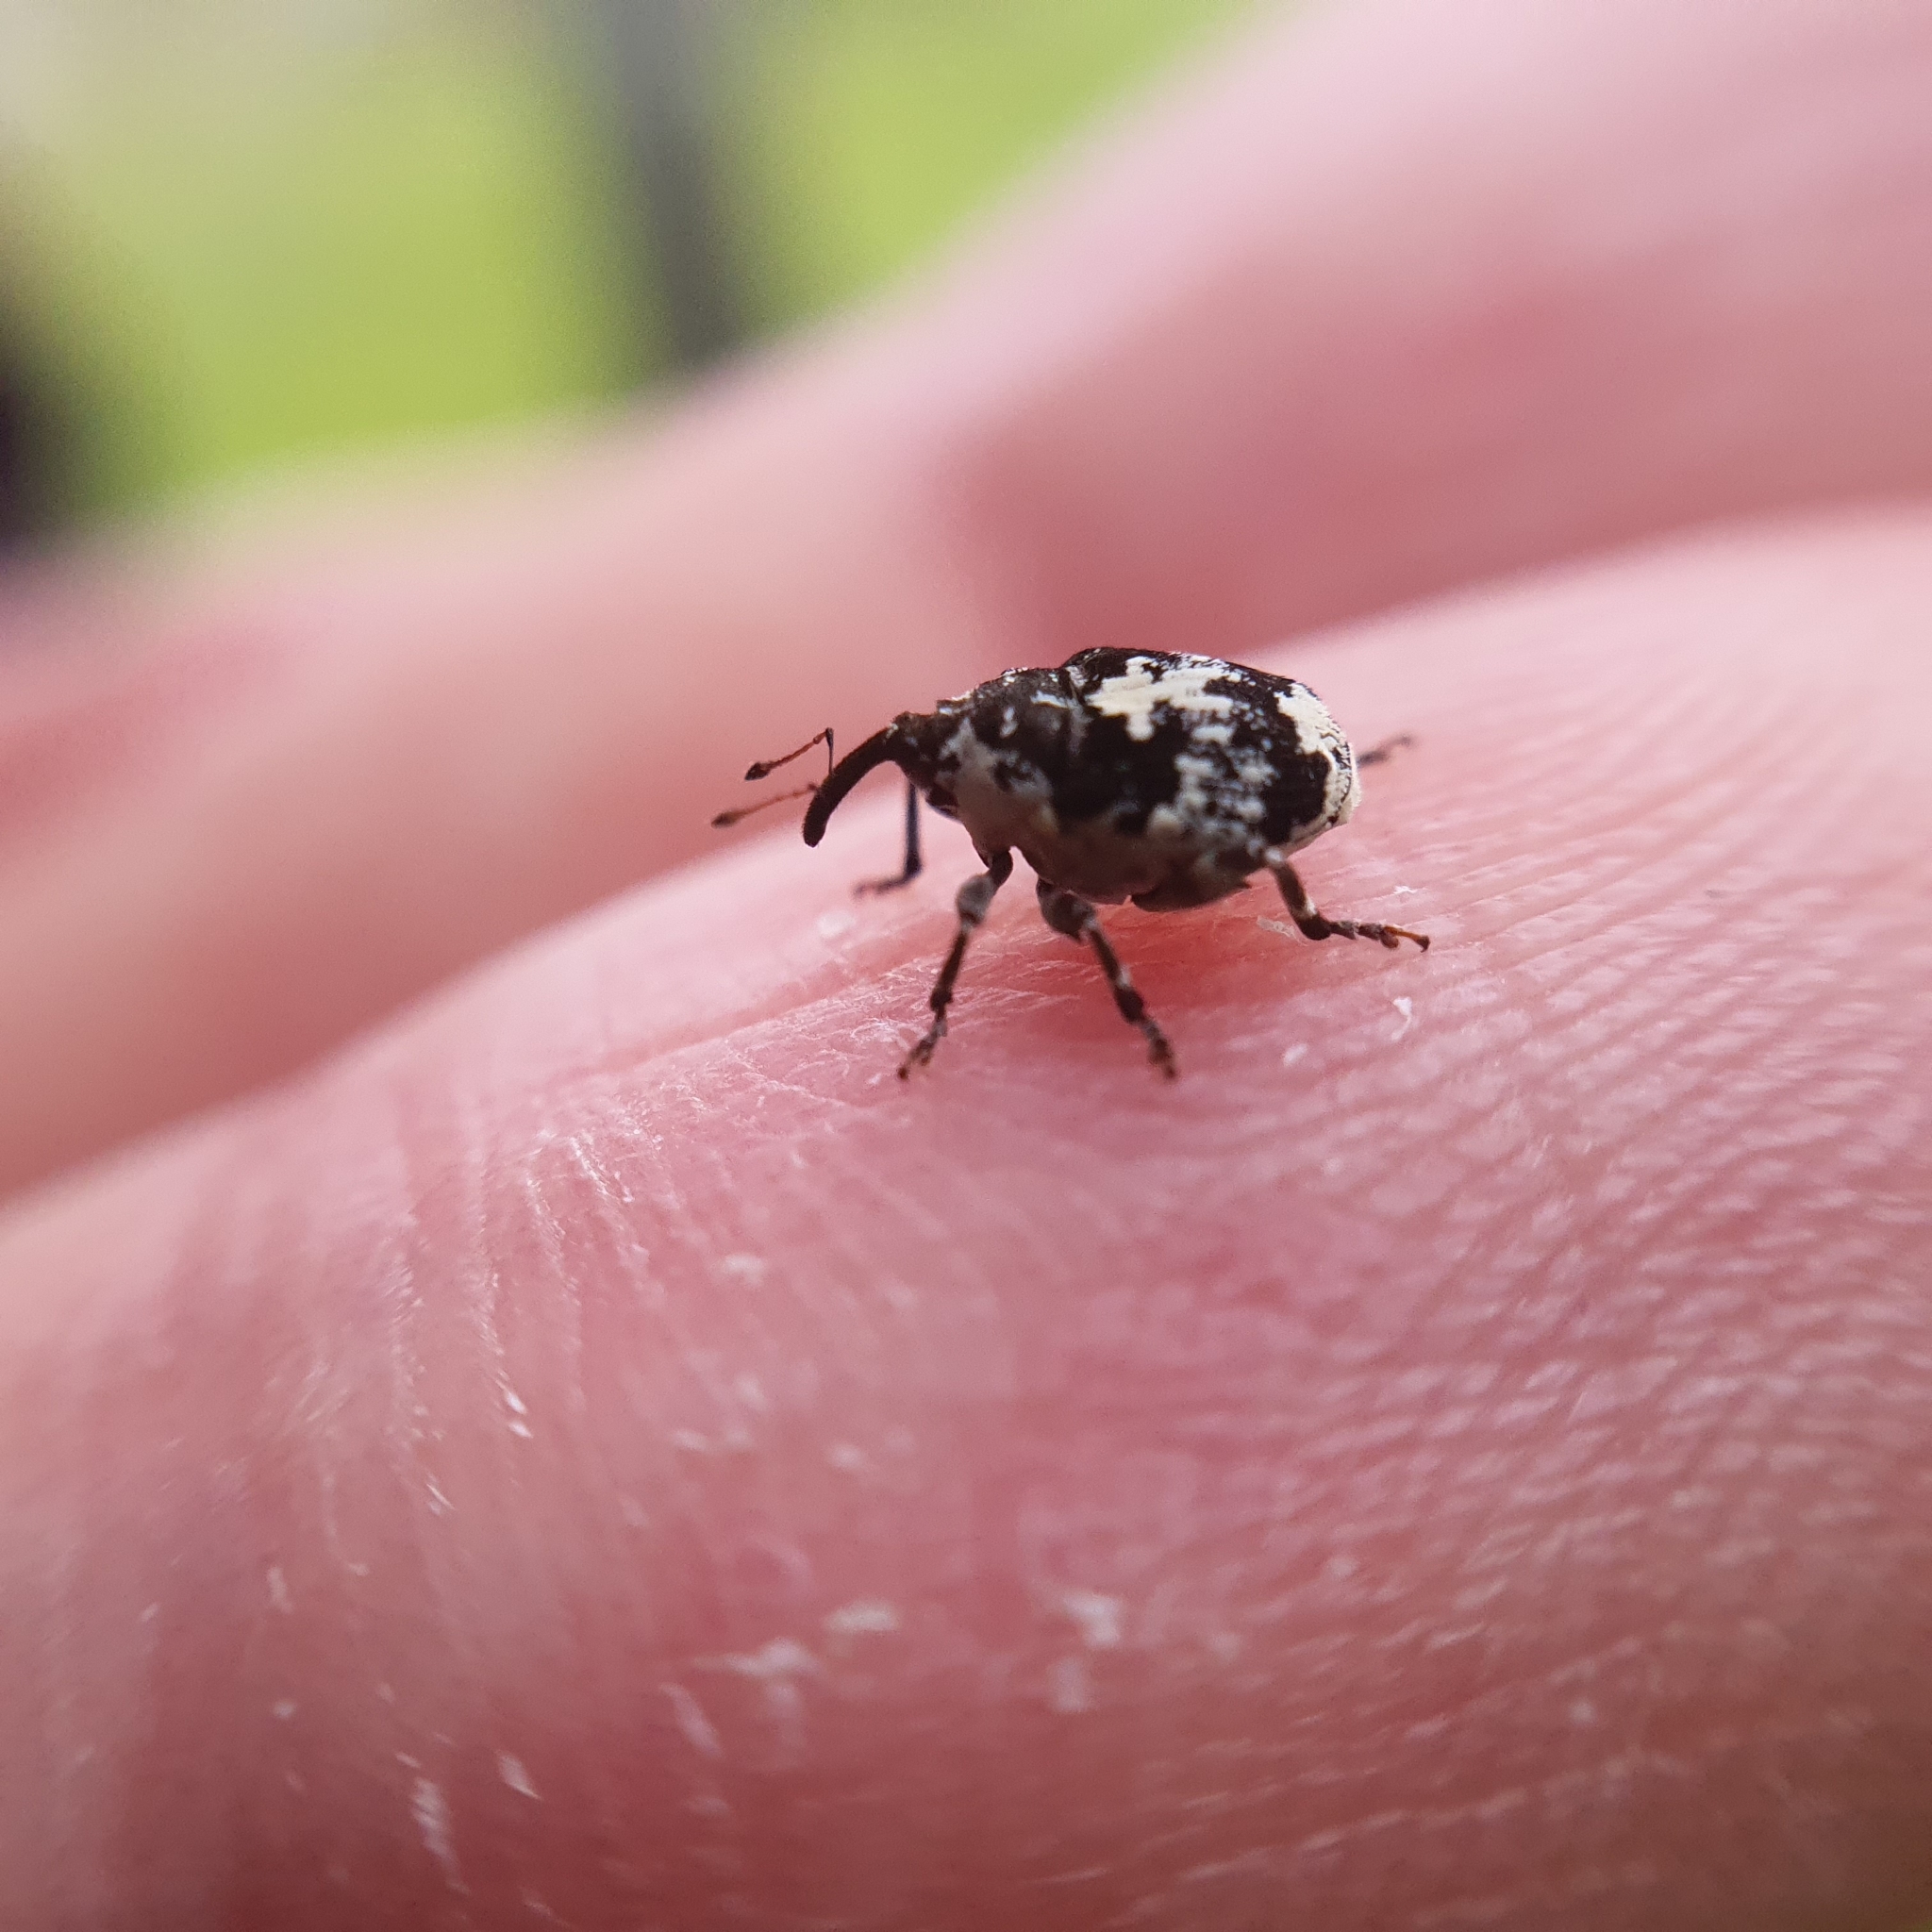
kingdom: Animalia
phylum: Arthropoda
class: Insecta
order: Coleoptera
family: Curculionidae
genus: Ceuthorrhynchus
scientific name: Ceuthorrhynchus larvatus
